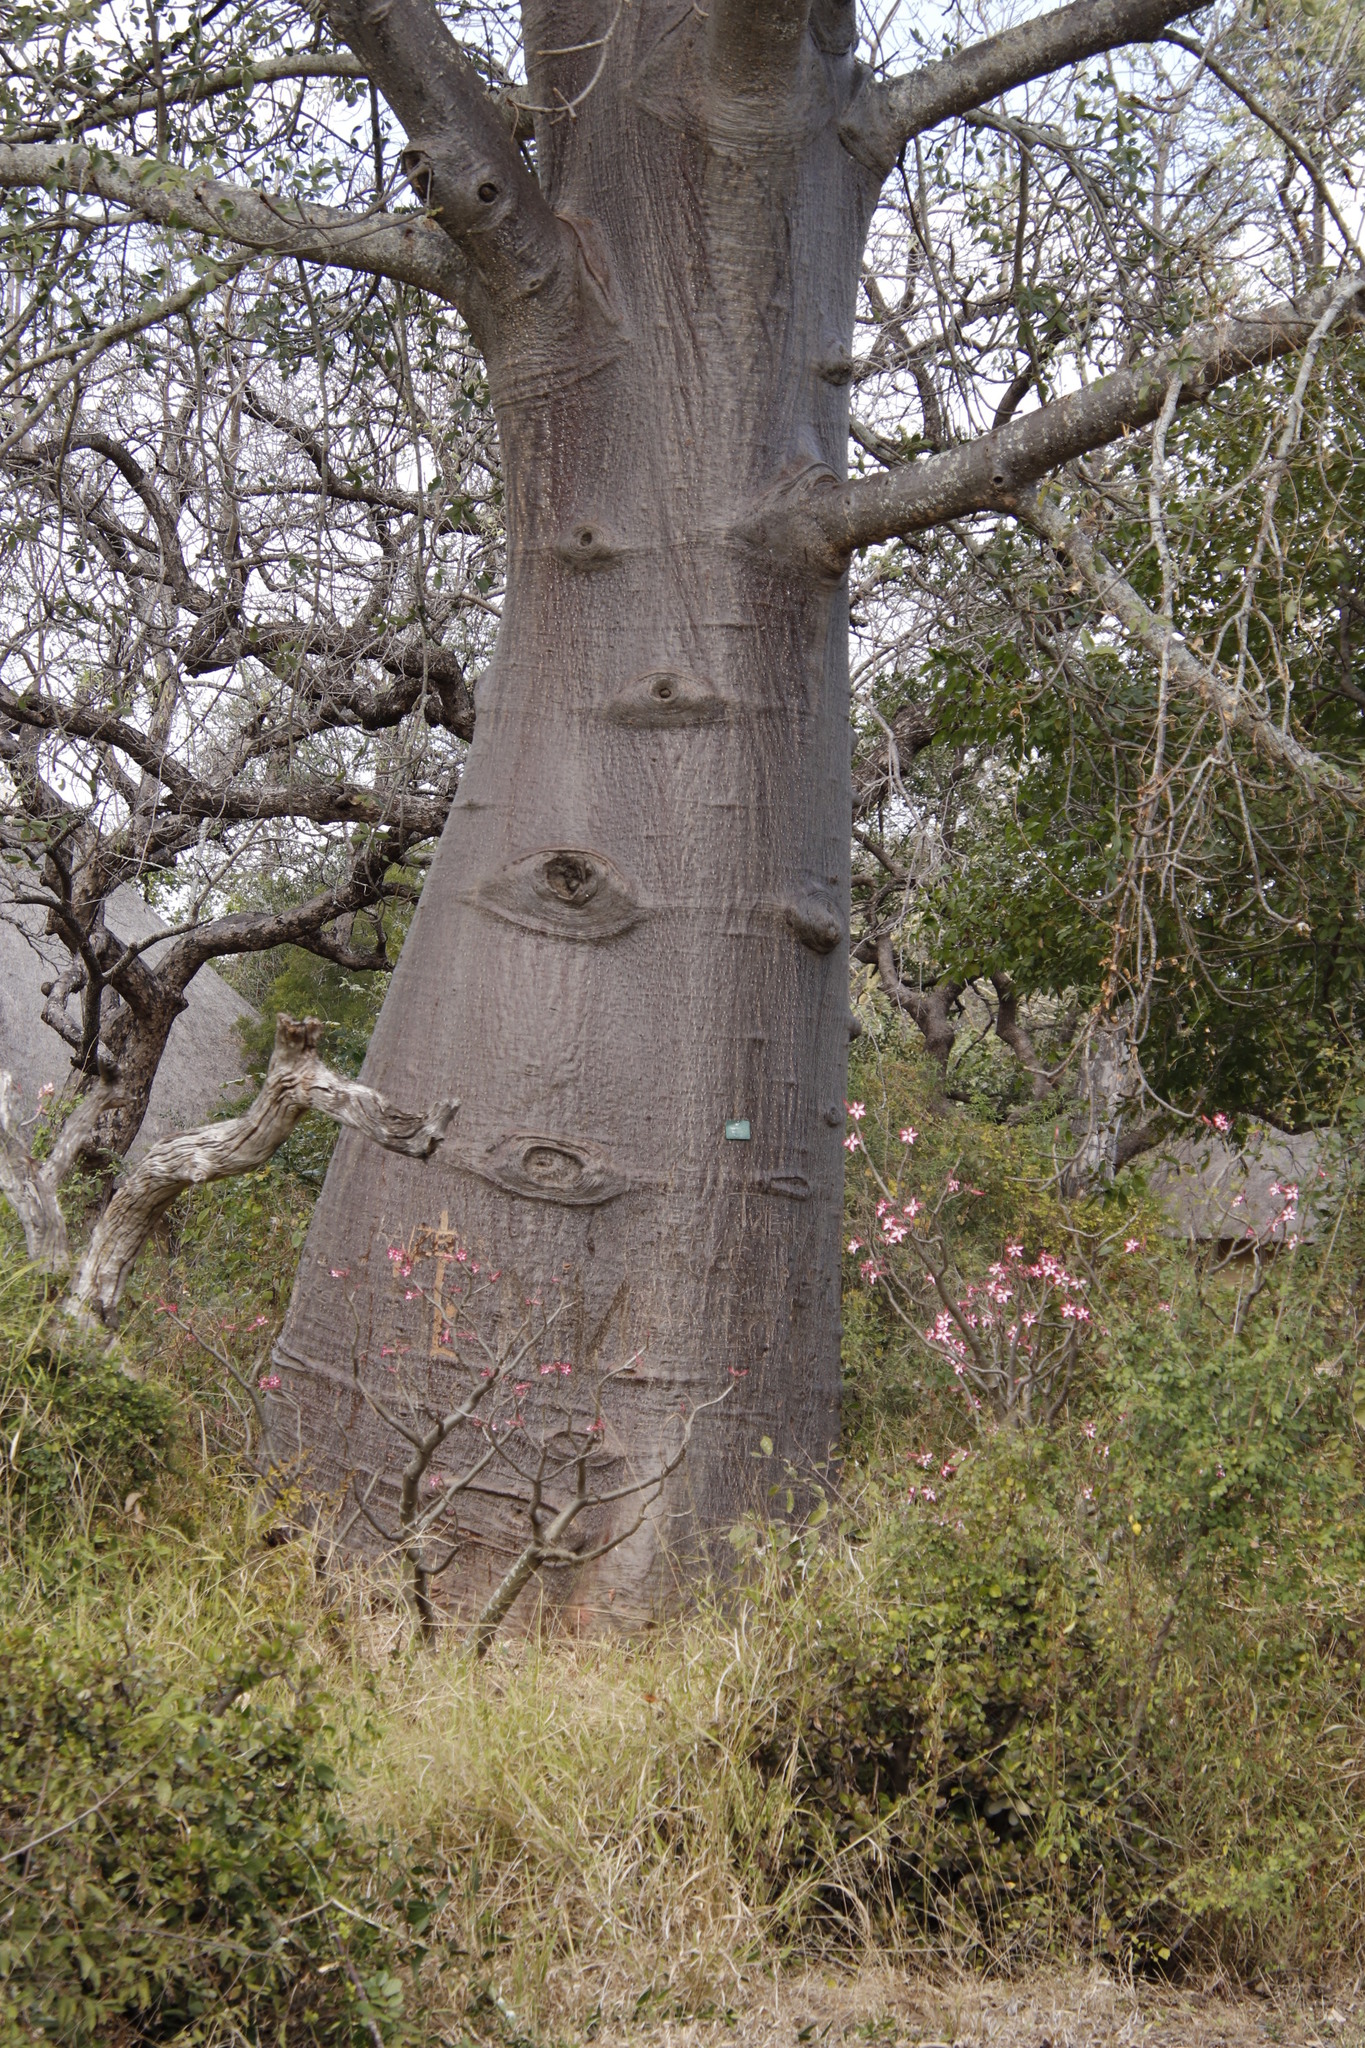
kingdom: Plantae
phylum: Tracheophyta
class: Magnoliopsida
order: Malvales
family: Malvaceae
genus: Adansonia
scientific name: Adansonia digitata
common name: Dead-rat-tree
